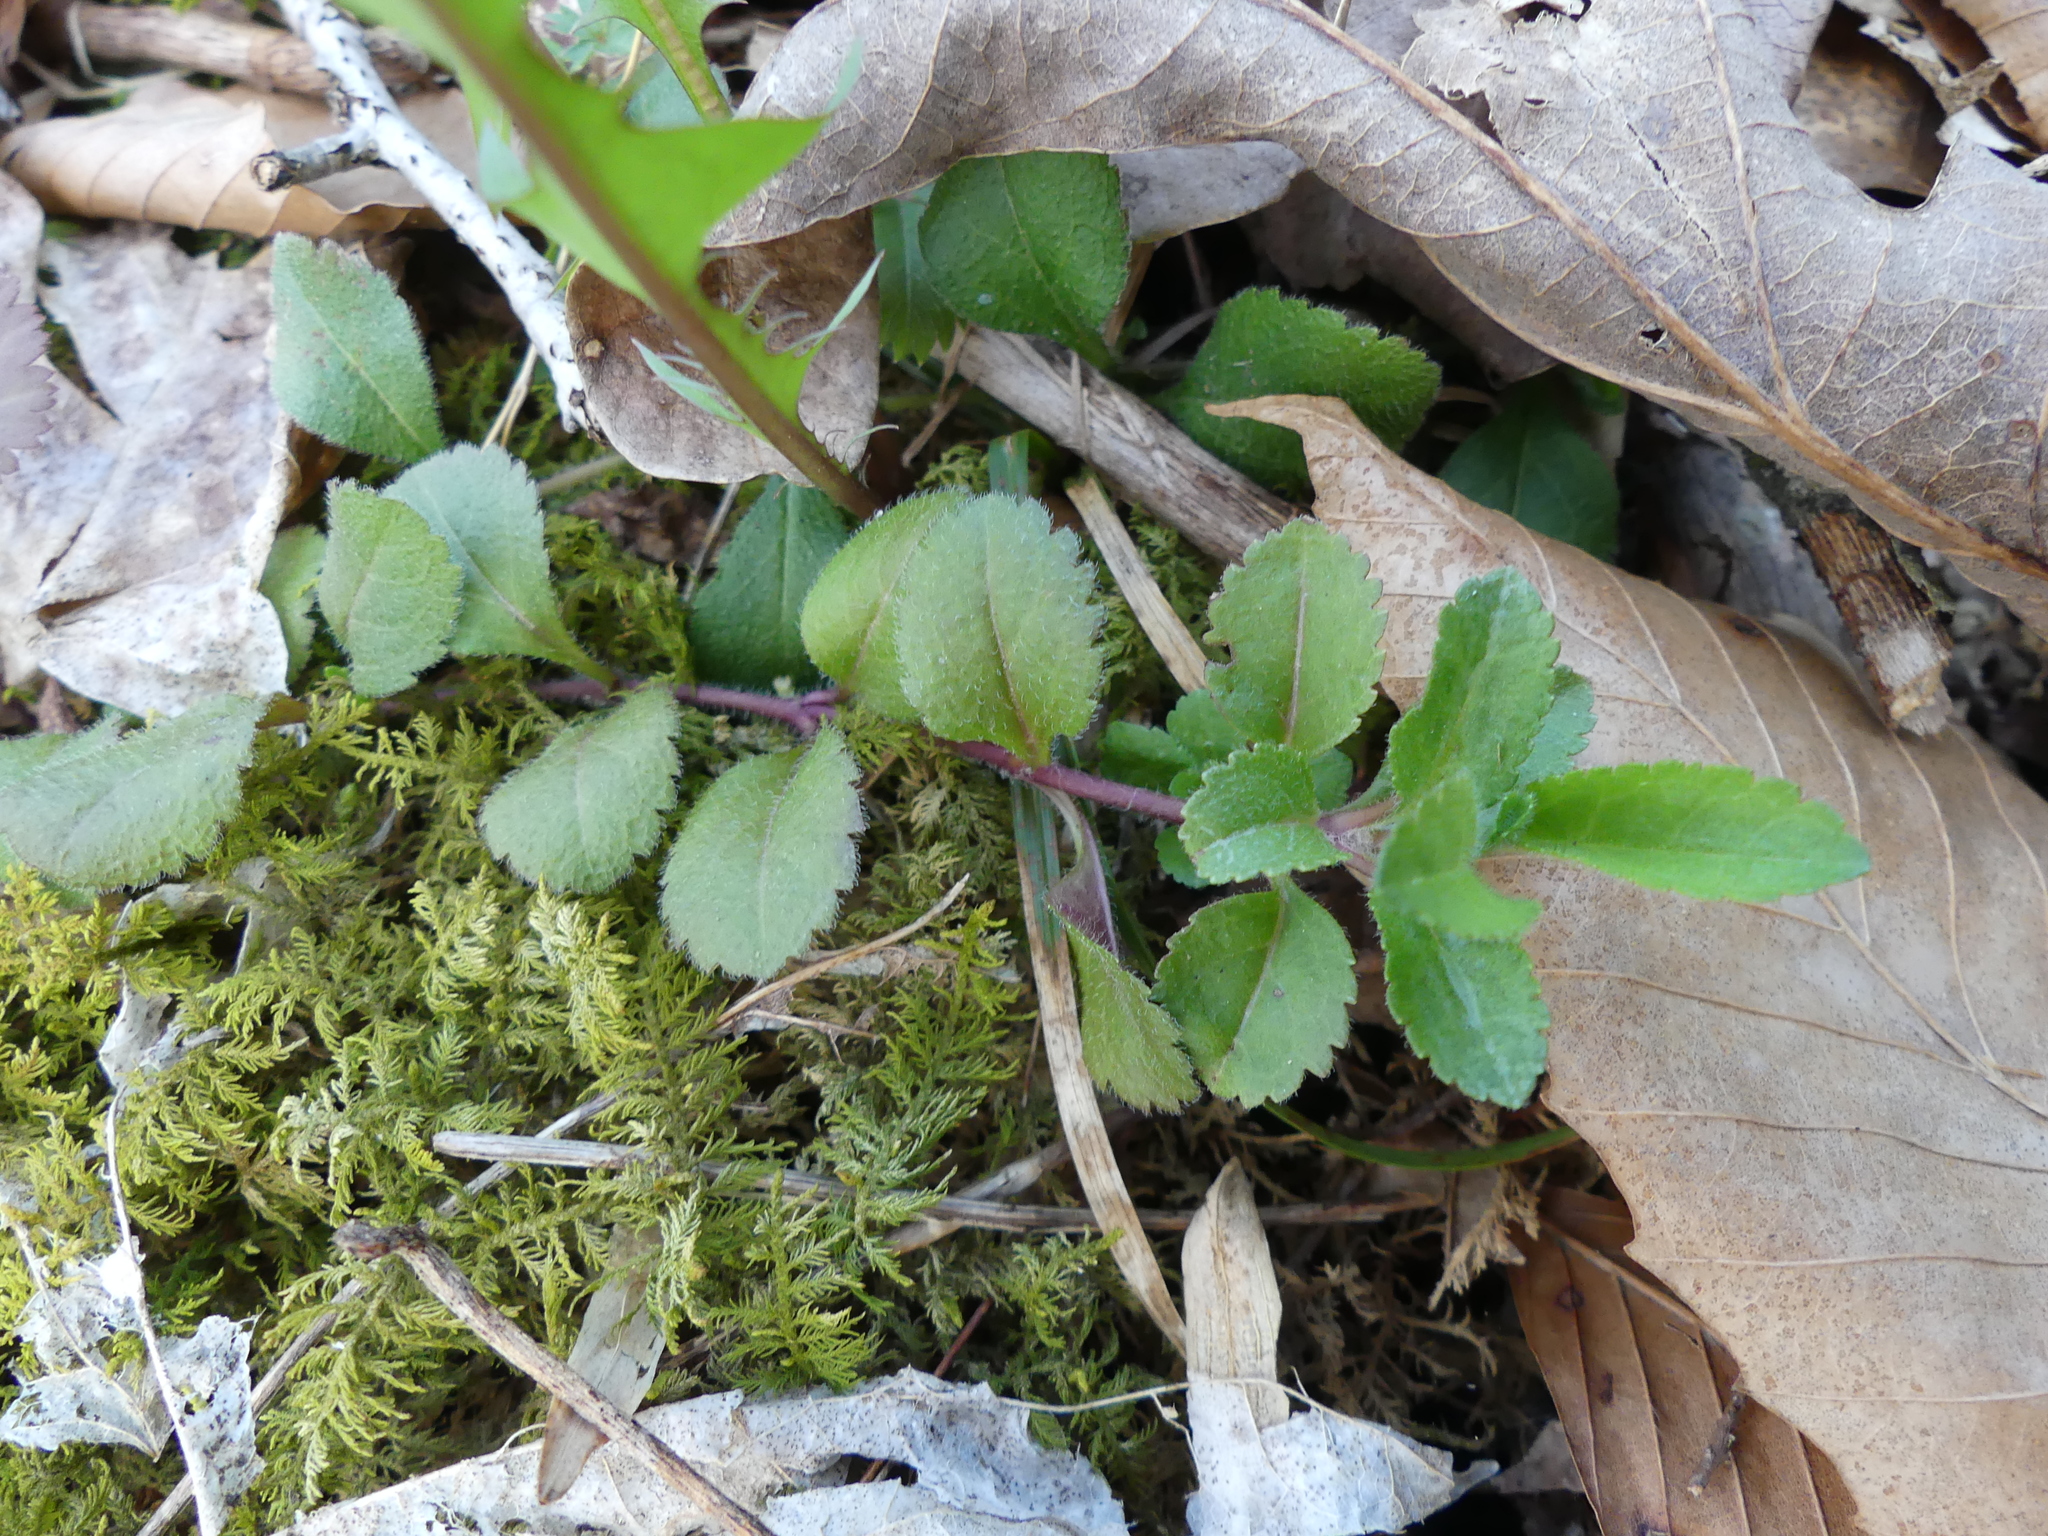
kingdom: Plantae
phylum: Tracheophyta
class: Magnoliopsida
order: Lamiales
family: Plantaginaceae
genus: Veronica
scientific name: Veronica officinalis
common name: Common speedwell
